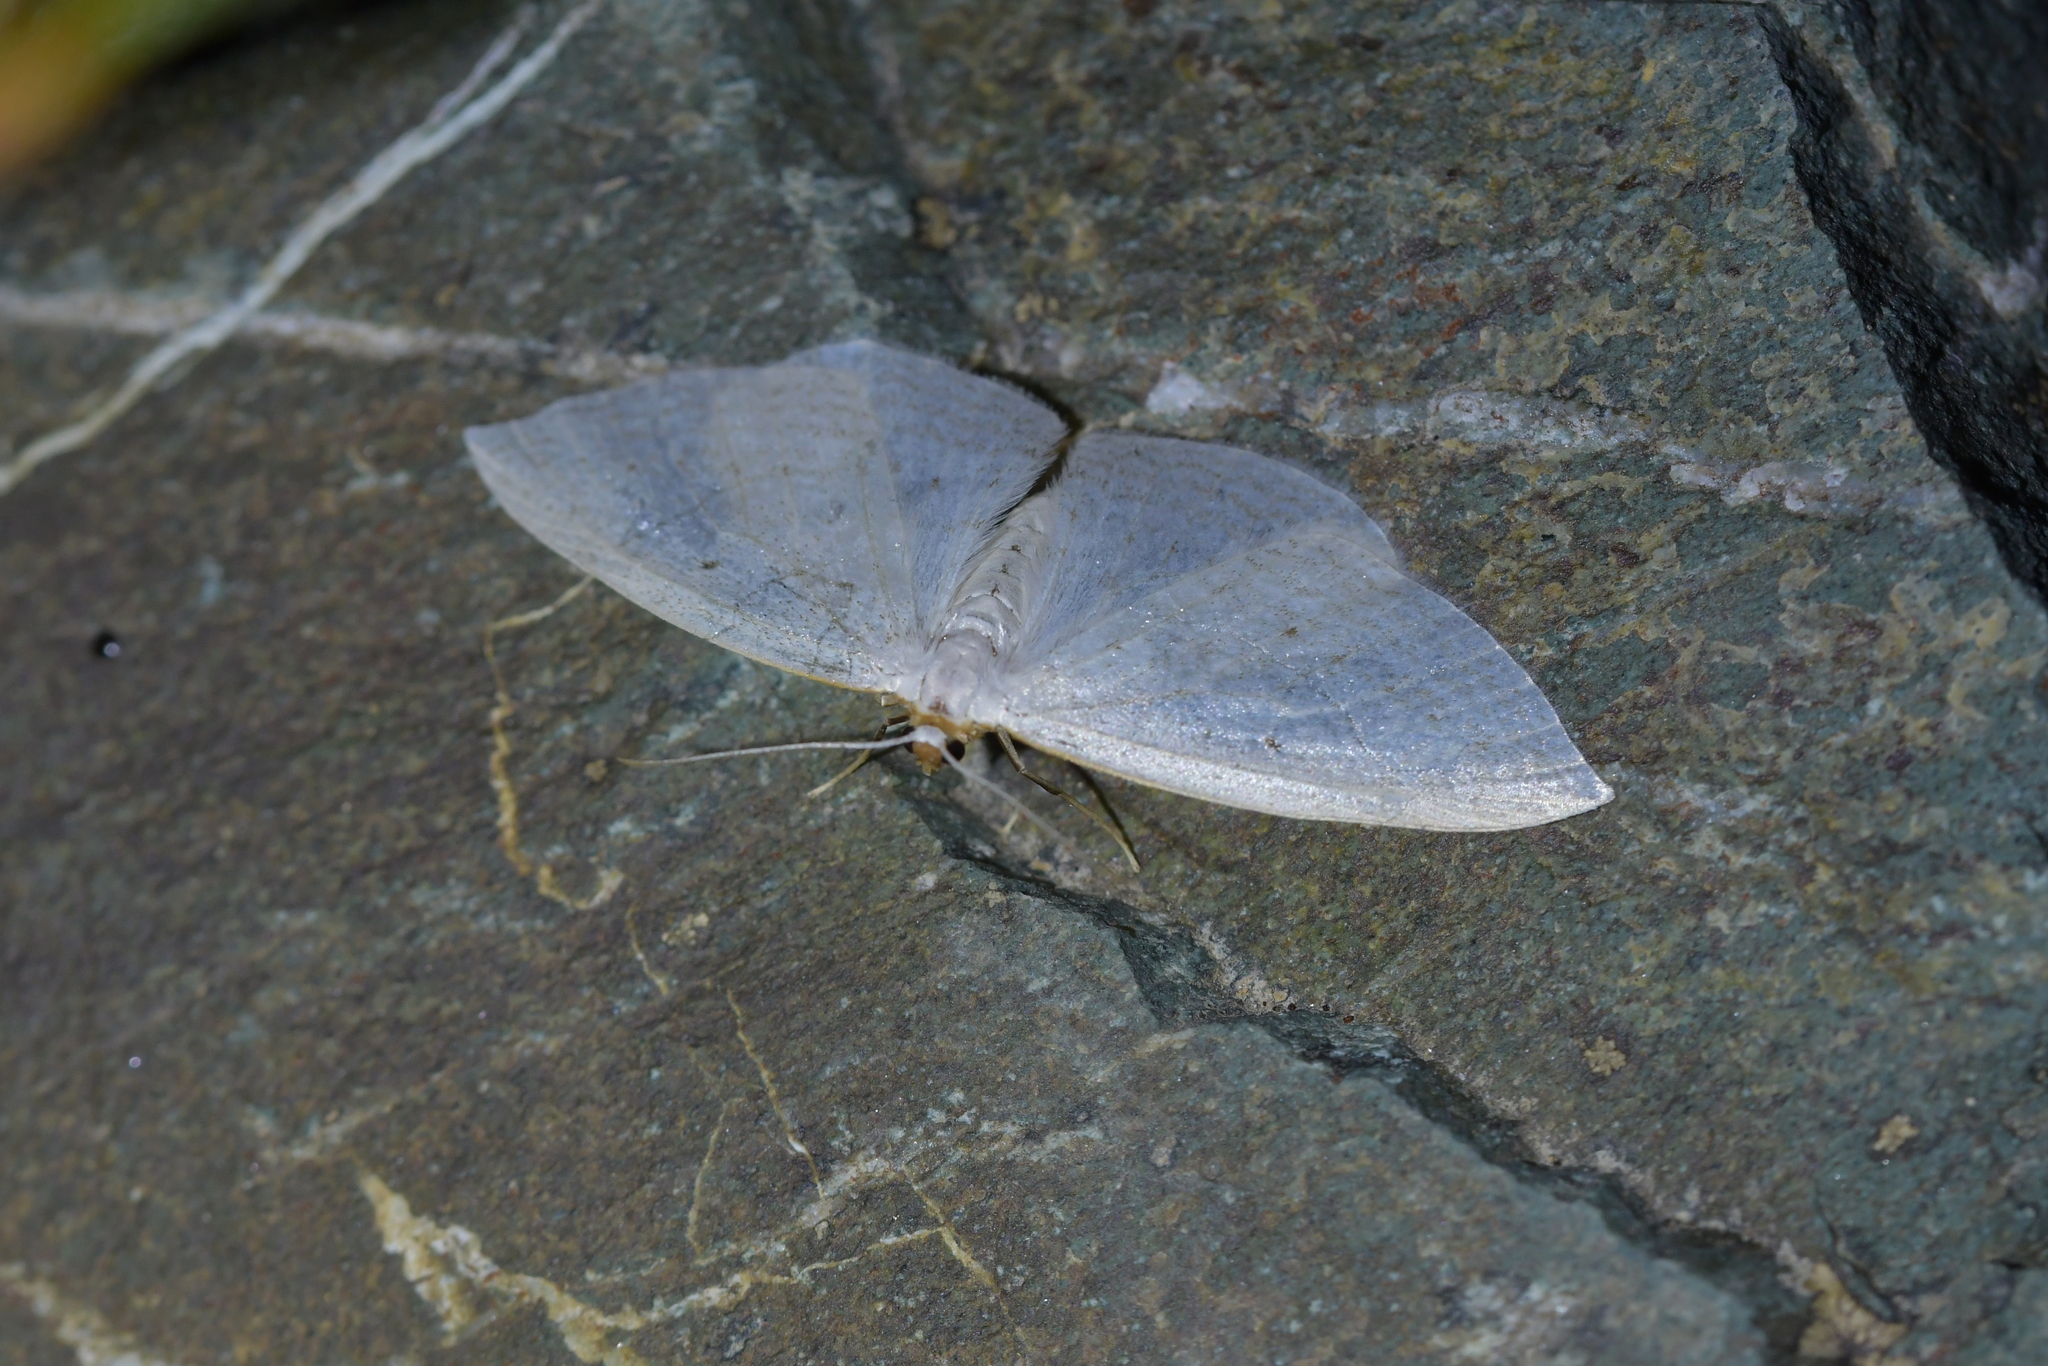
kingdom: Animalia
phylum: Arthropoda
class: Insecta
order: Lepidoptera
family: Geometridae
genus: Orthoclydon
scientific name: Orthoclydon praefectata
